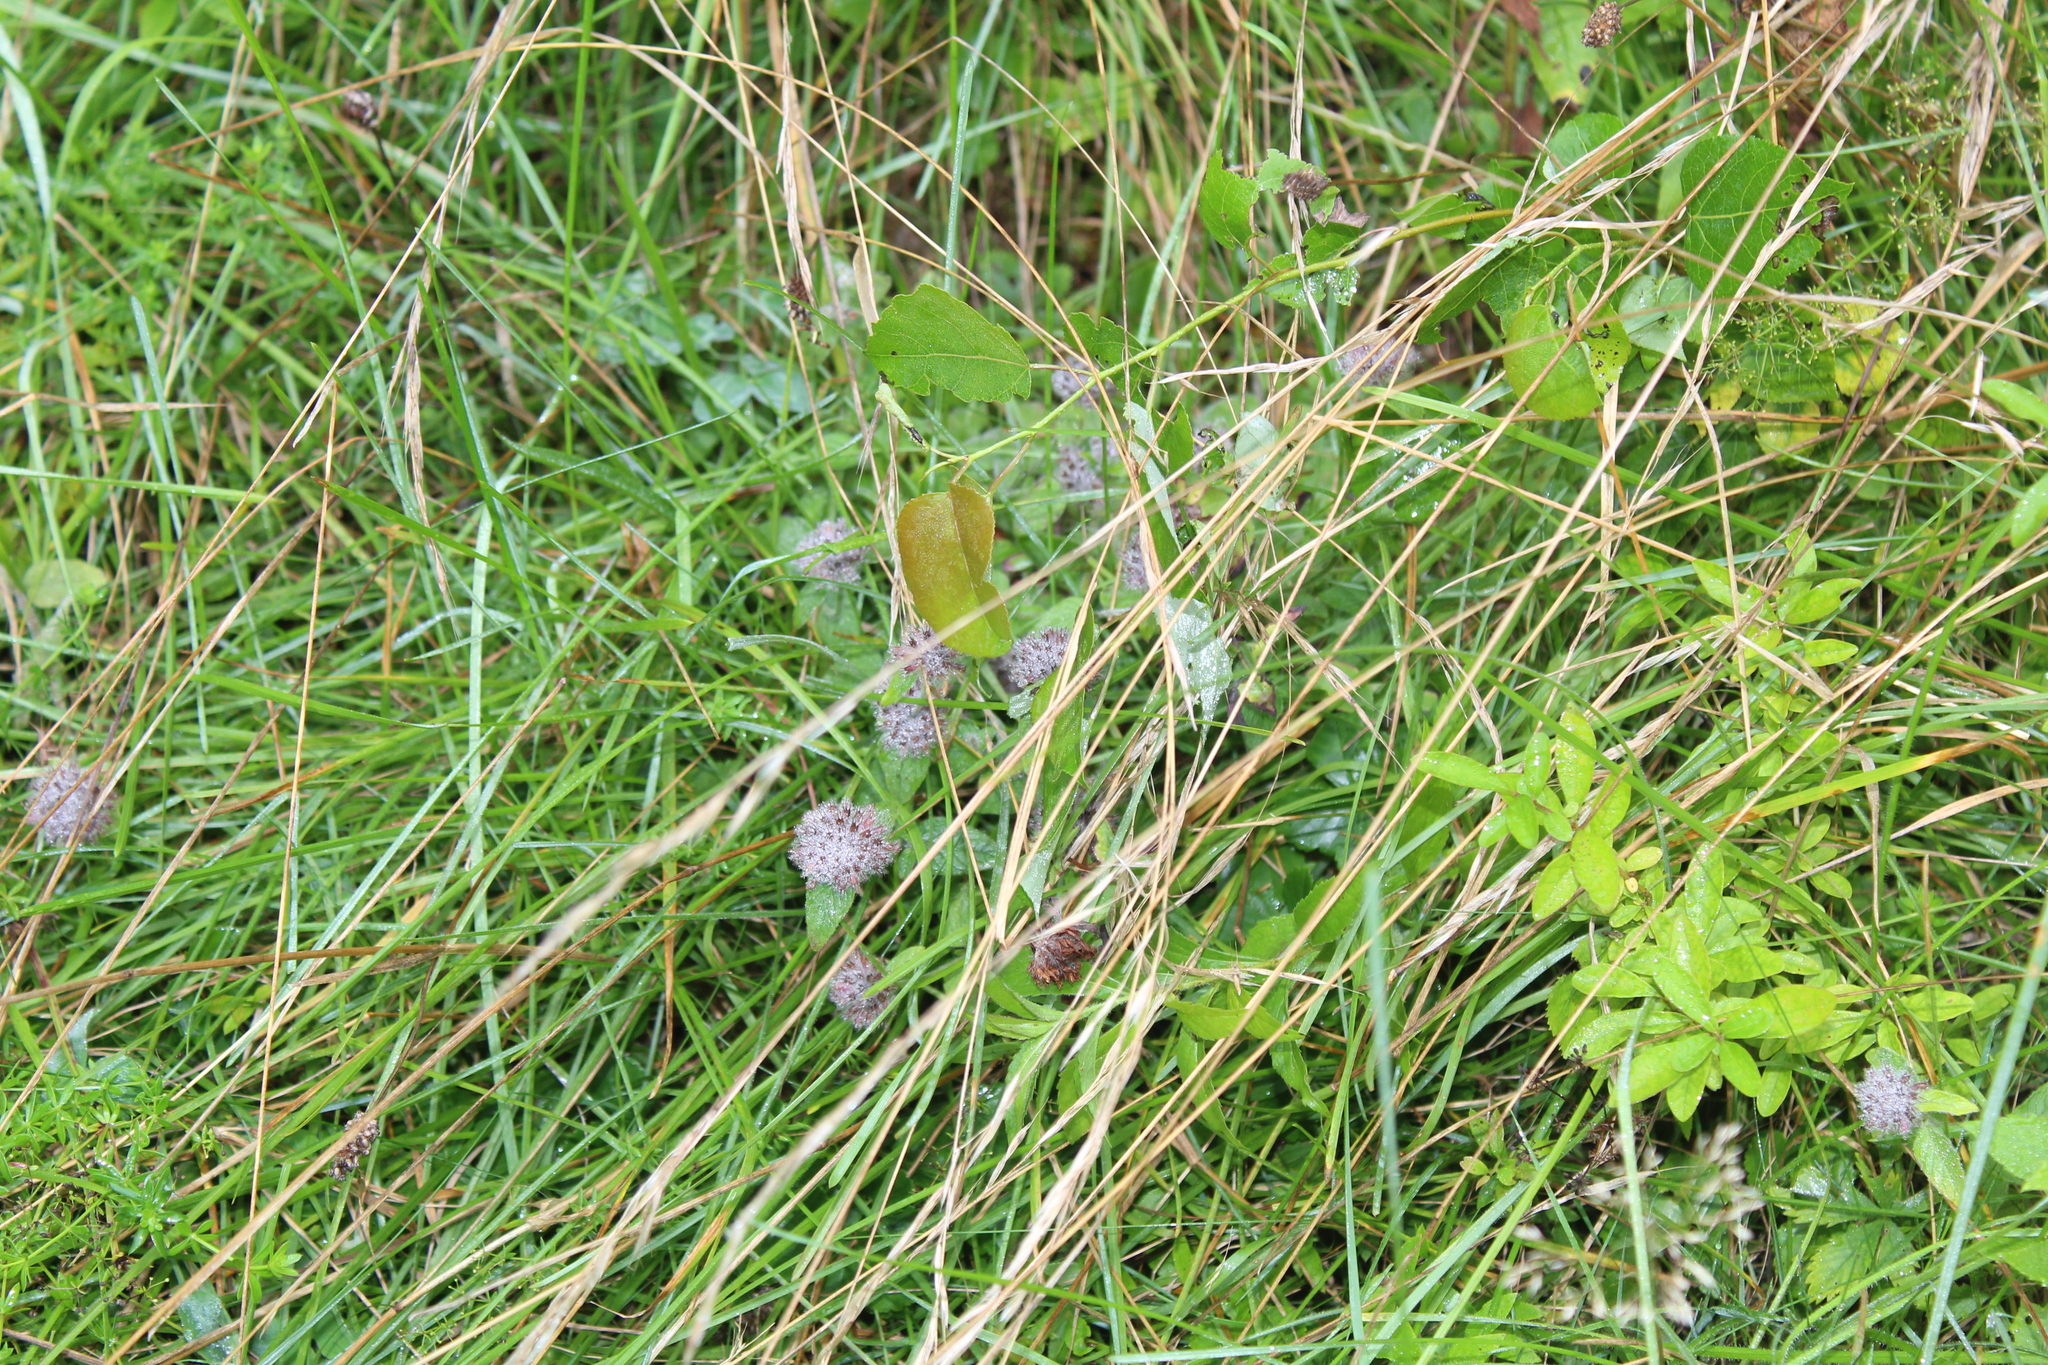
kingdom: Plantae
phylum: Tracheophyta
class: Magnoliopsida
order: Lamiales
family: Lamiaceae
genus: Clinopodium
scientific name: Clinopodium vulgare
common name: Wild basil
